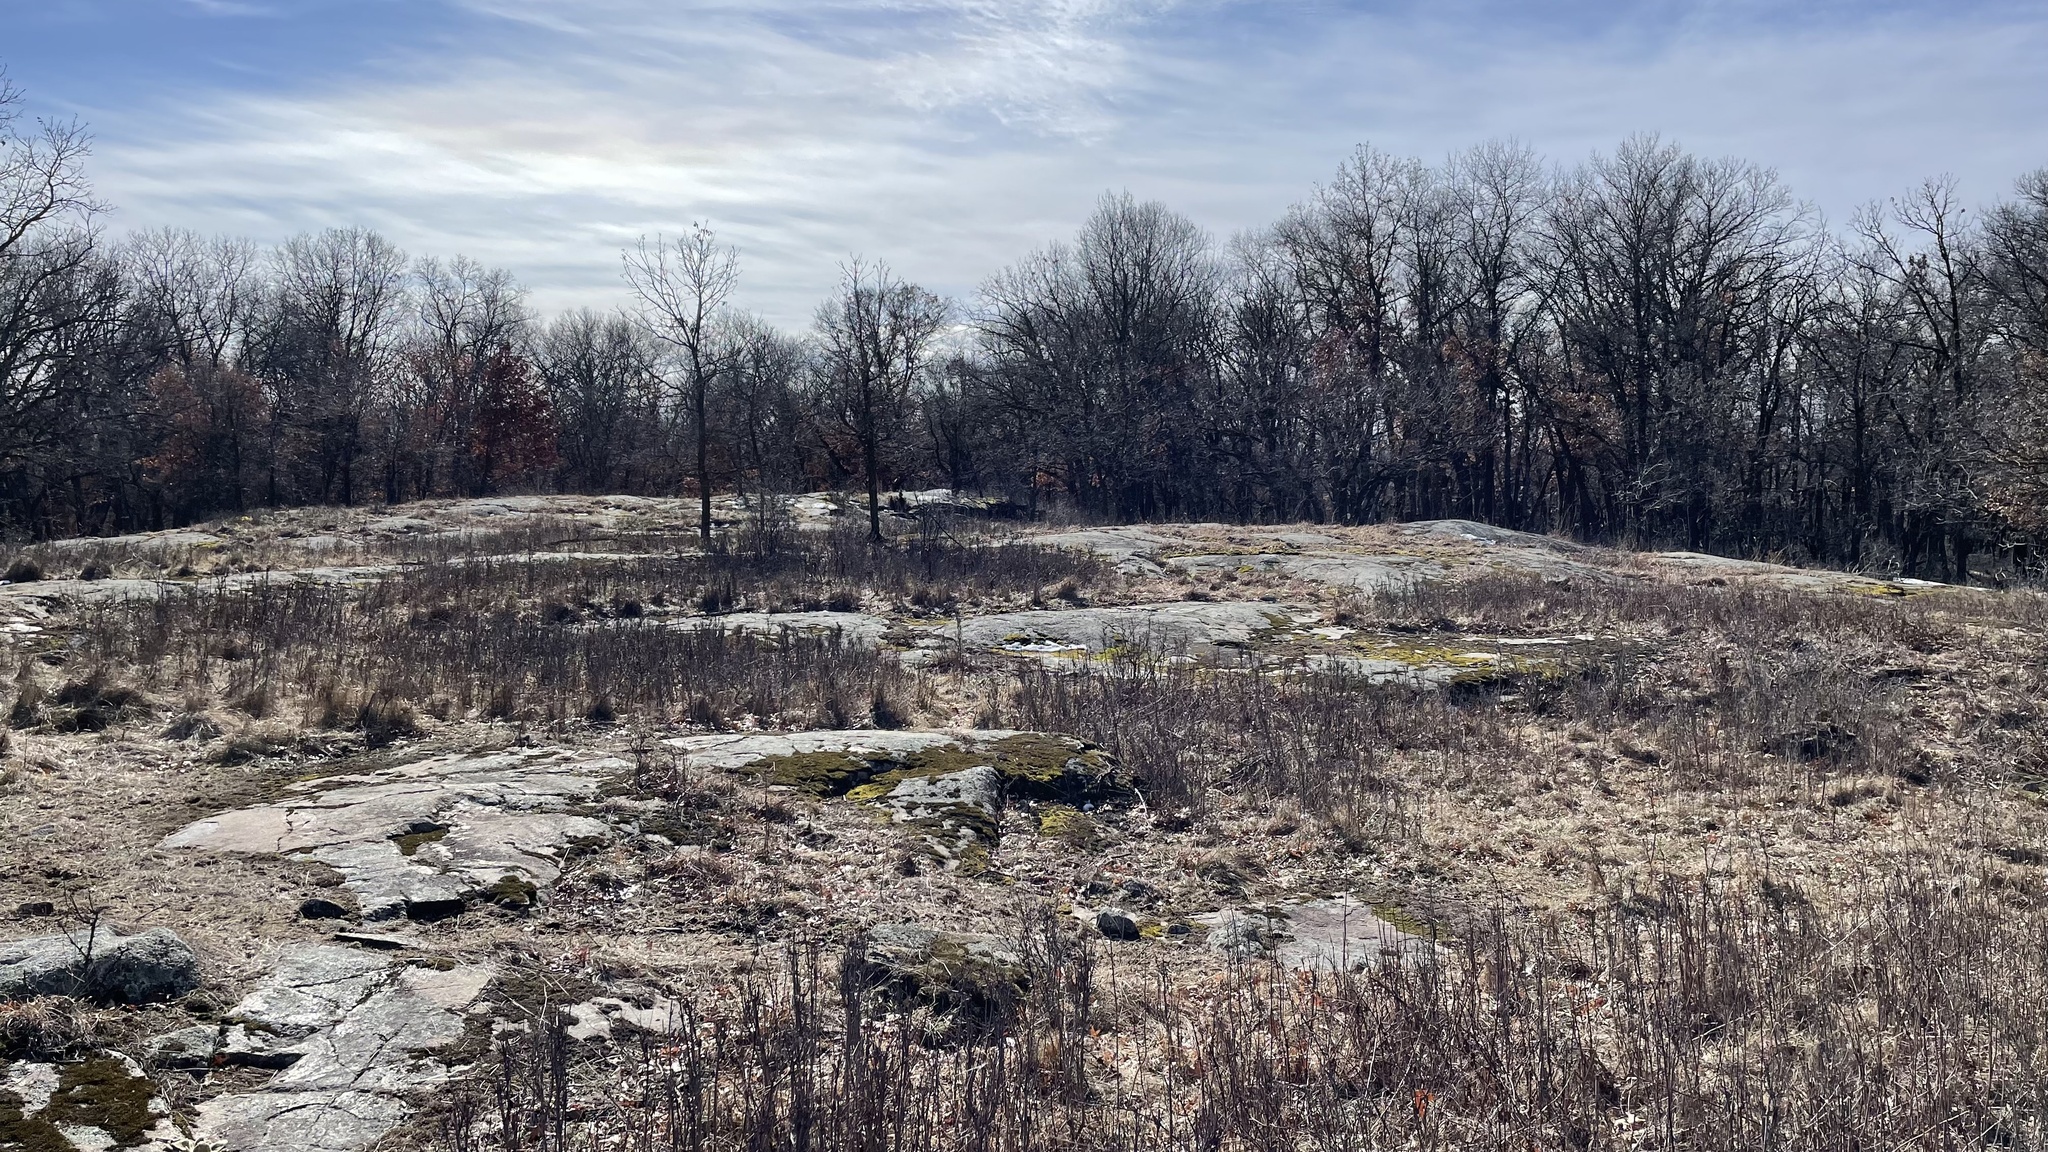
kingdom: Plantae
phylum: Tracheophyta
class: Liliopsida
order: Poales
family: Poaceae
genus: Aristida
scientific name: Aristida basiramea
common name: Forked three-awned grass
